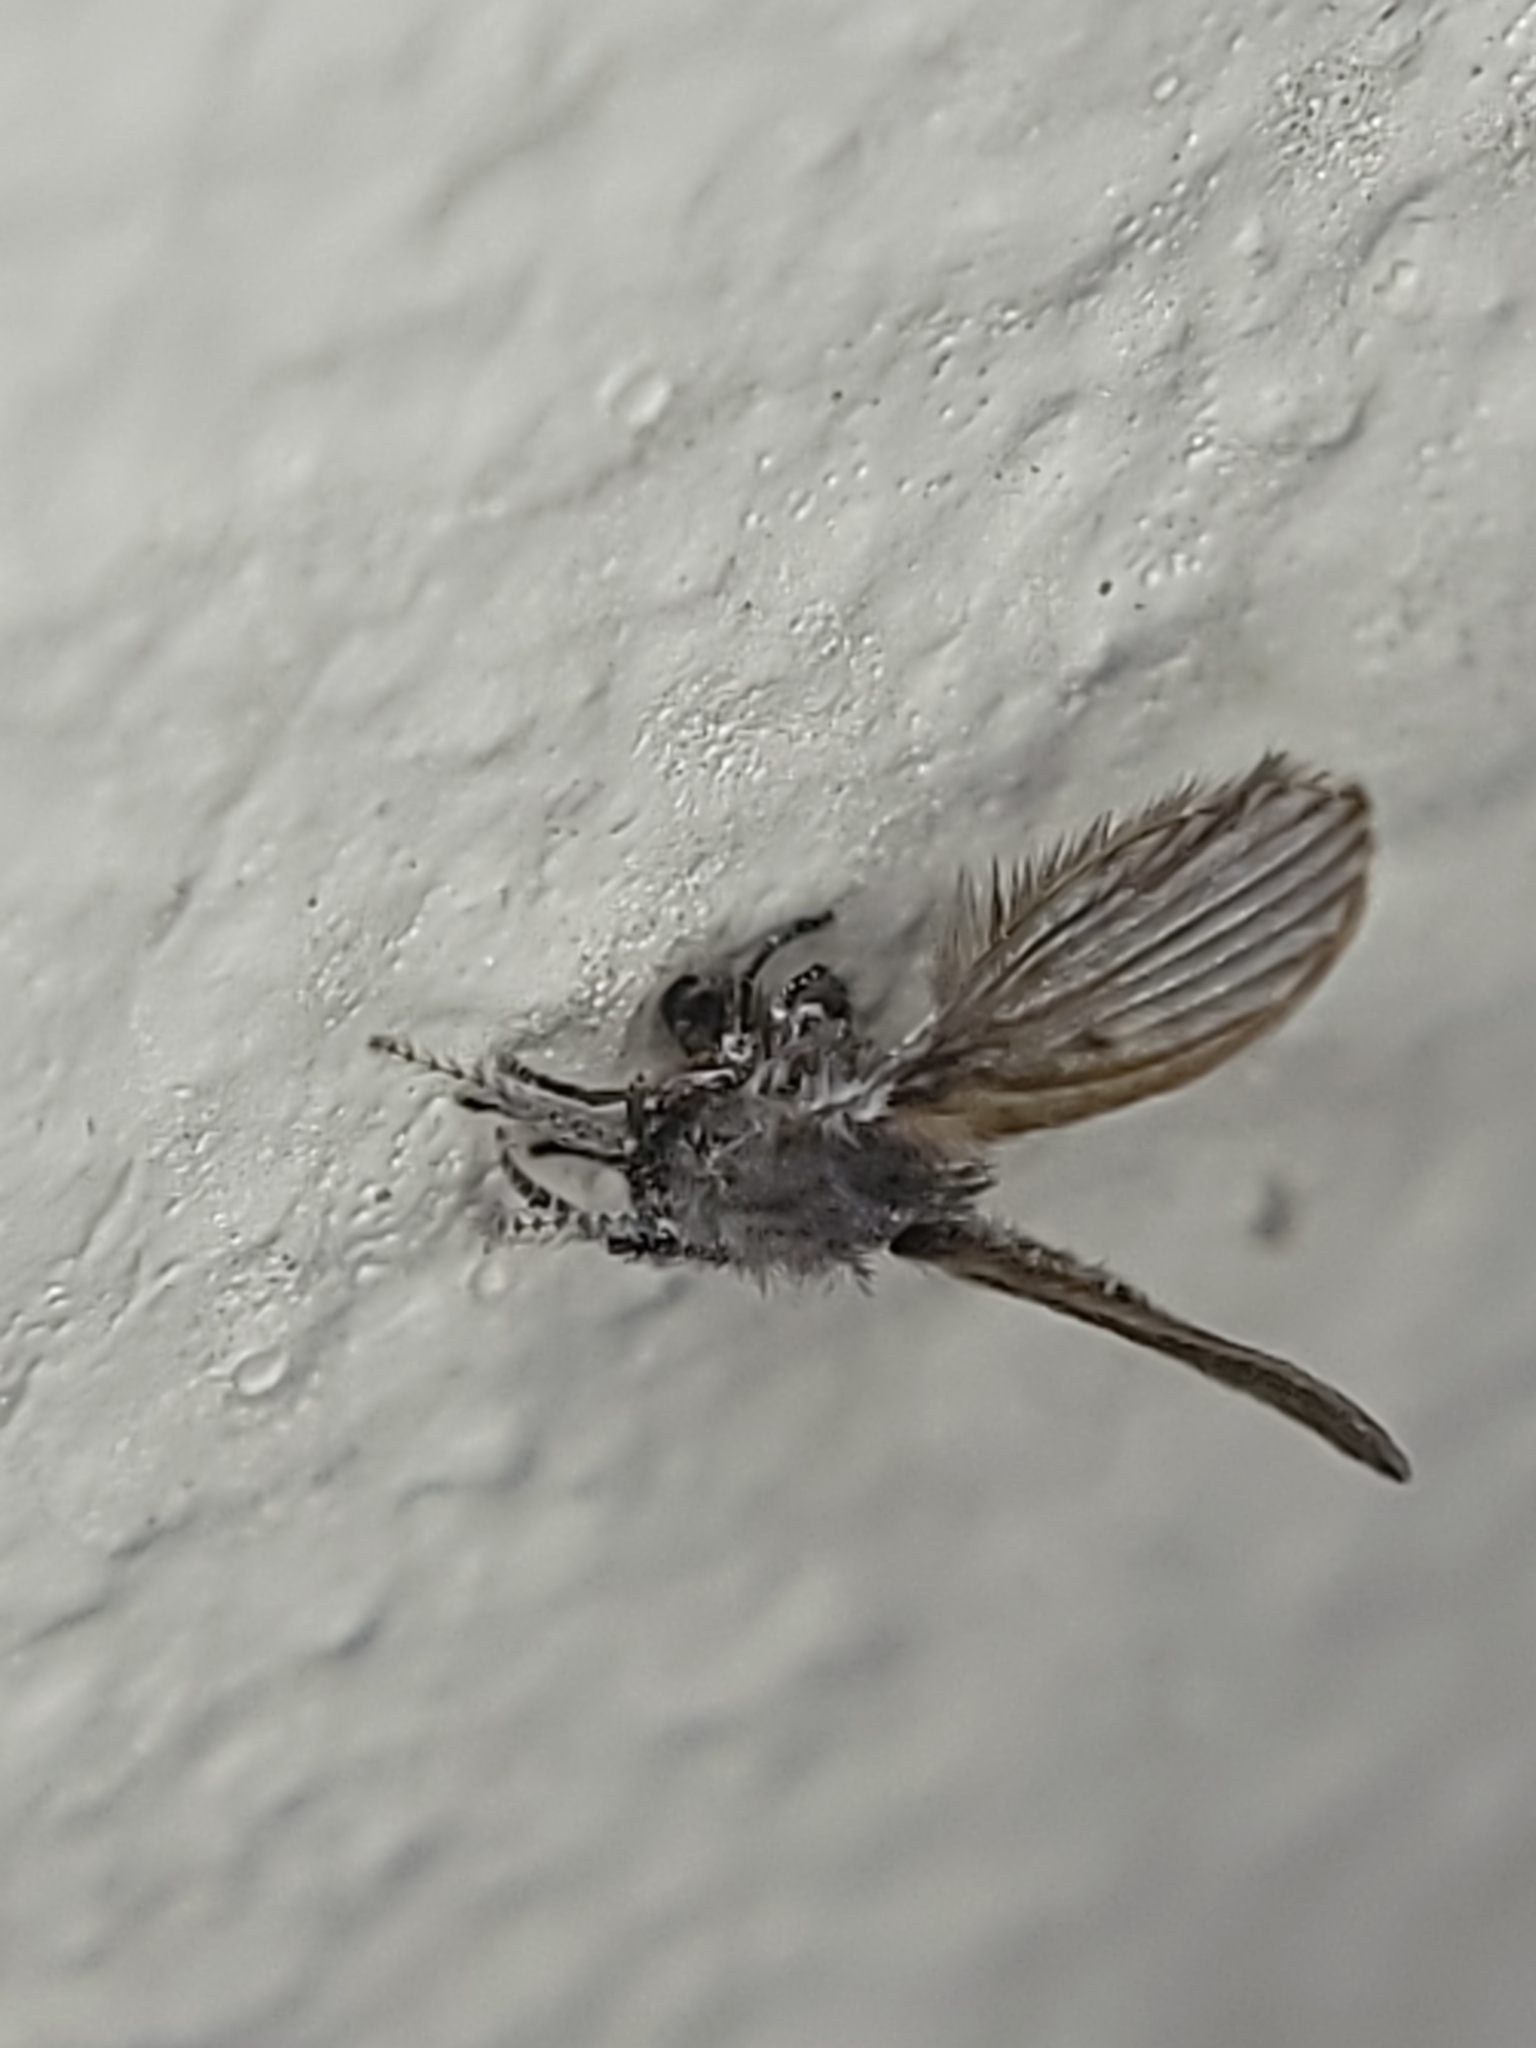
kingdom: Animalia
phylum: Arthropoda
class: Insecta
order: Diptera
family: Psychodidae
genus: Clogmia
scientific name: Clogmia albipunctatus
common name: White-spotted moth fly
